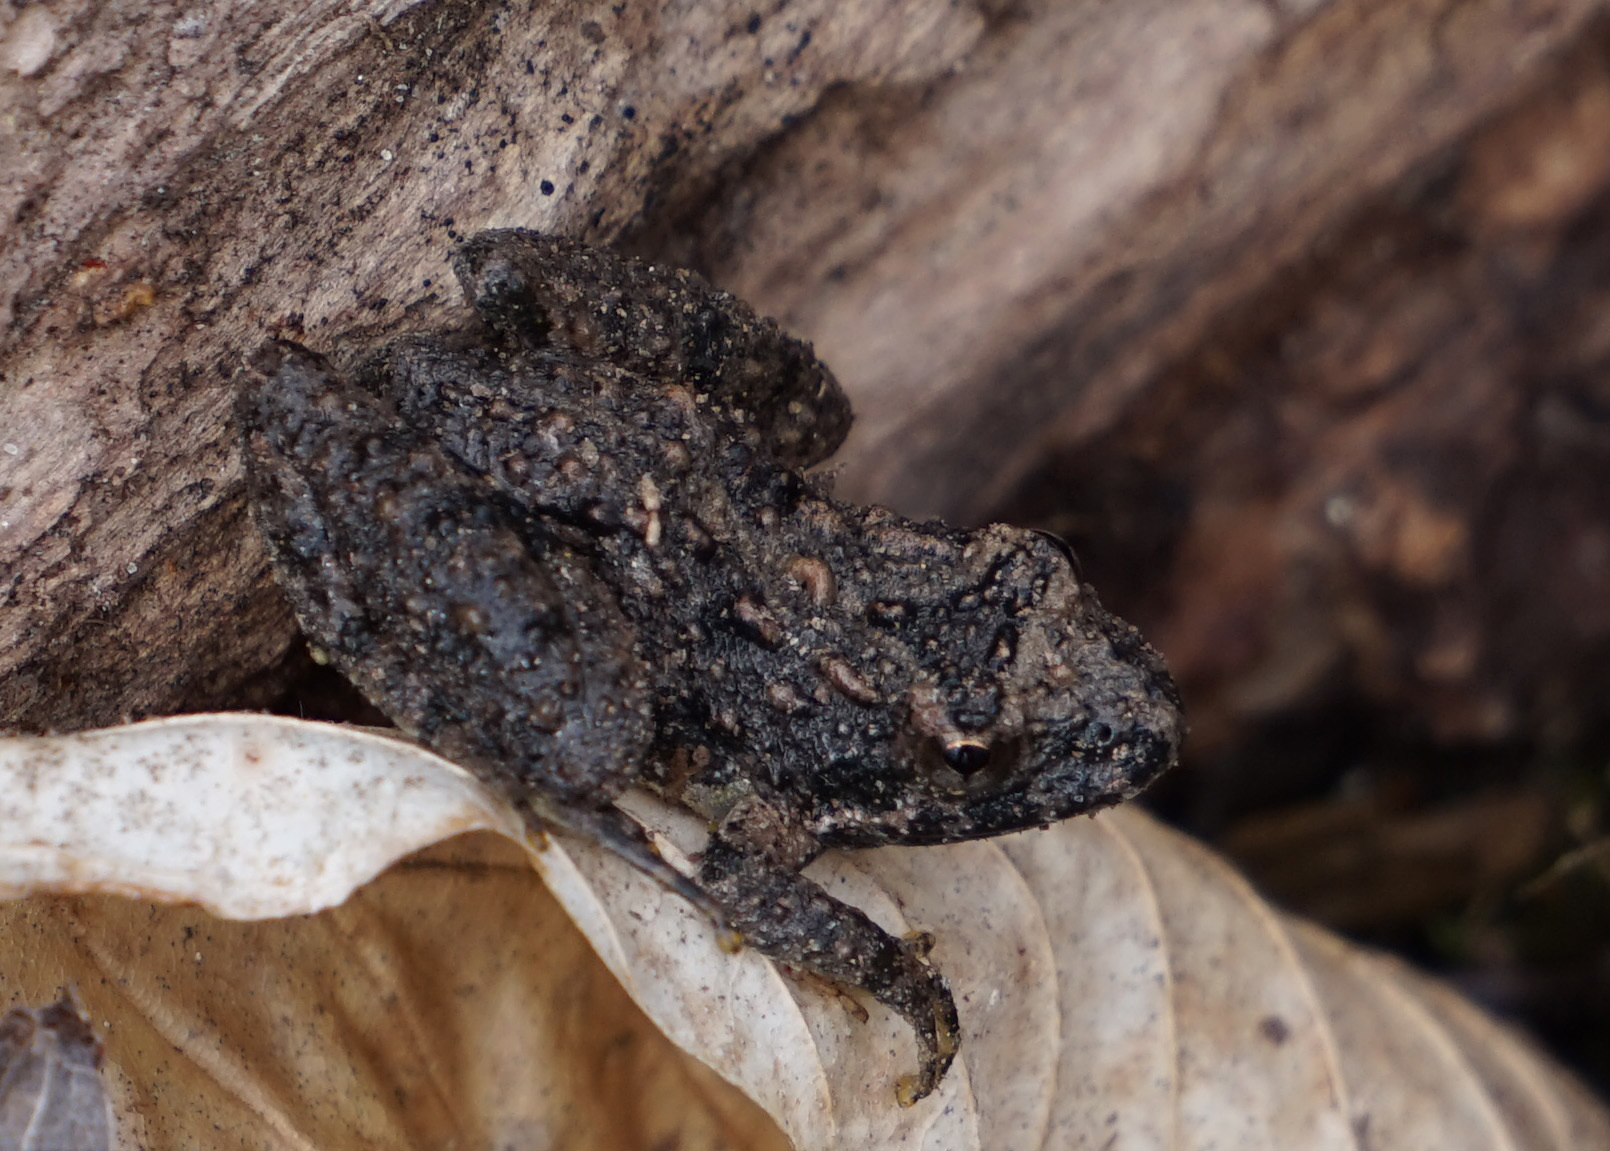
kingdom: Animalia
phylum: Chordata
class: Amphibia
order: Anura
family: Hylidae
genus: Acris
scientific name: Acris crepitans
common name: Northern cricket frog
